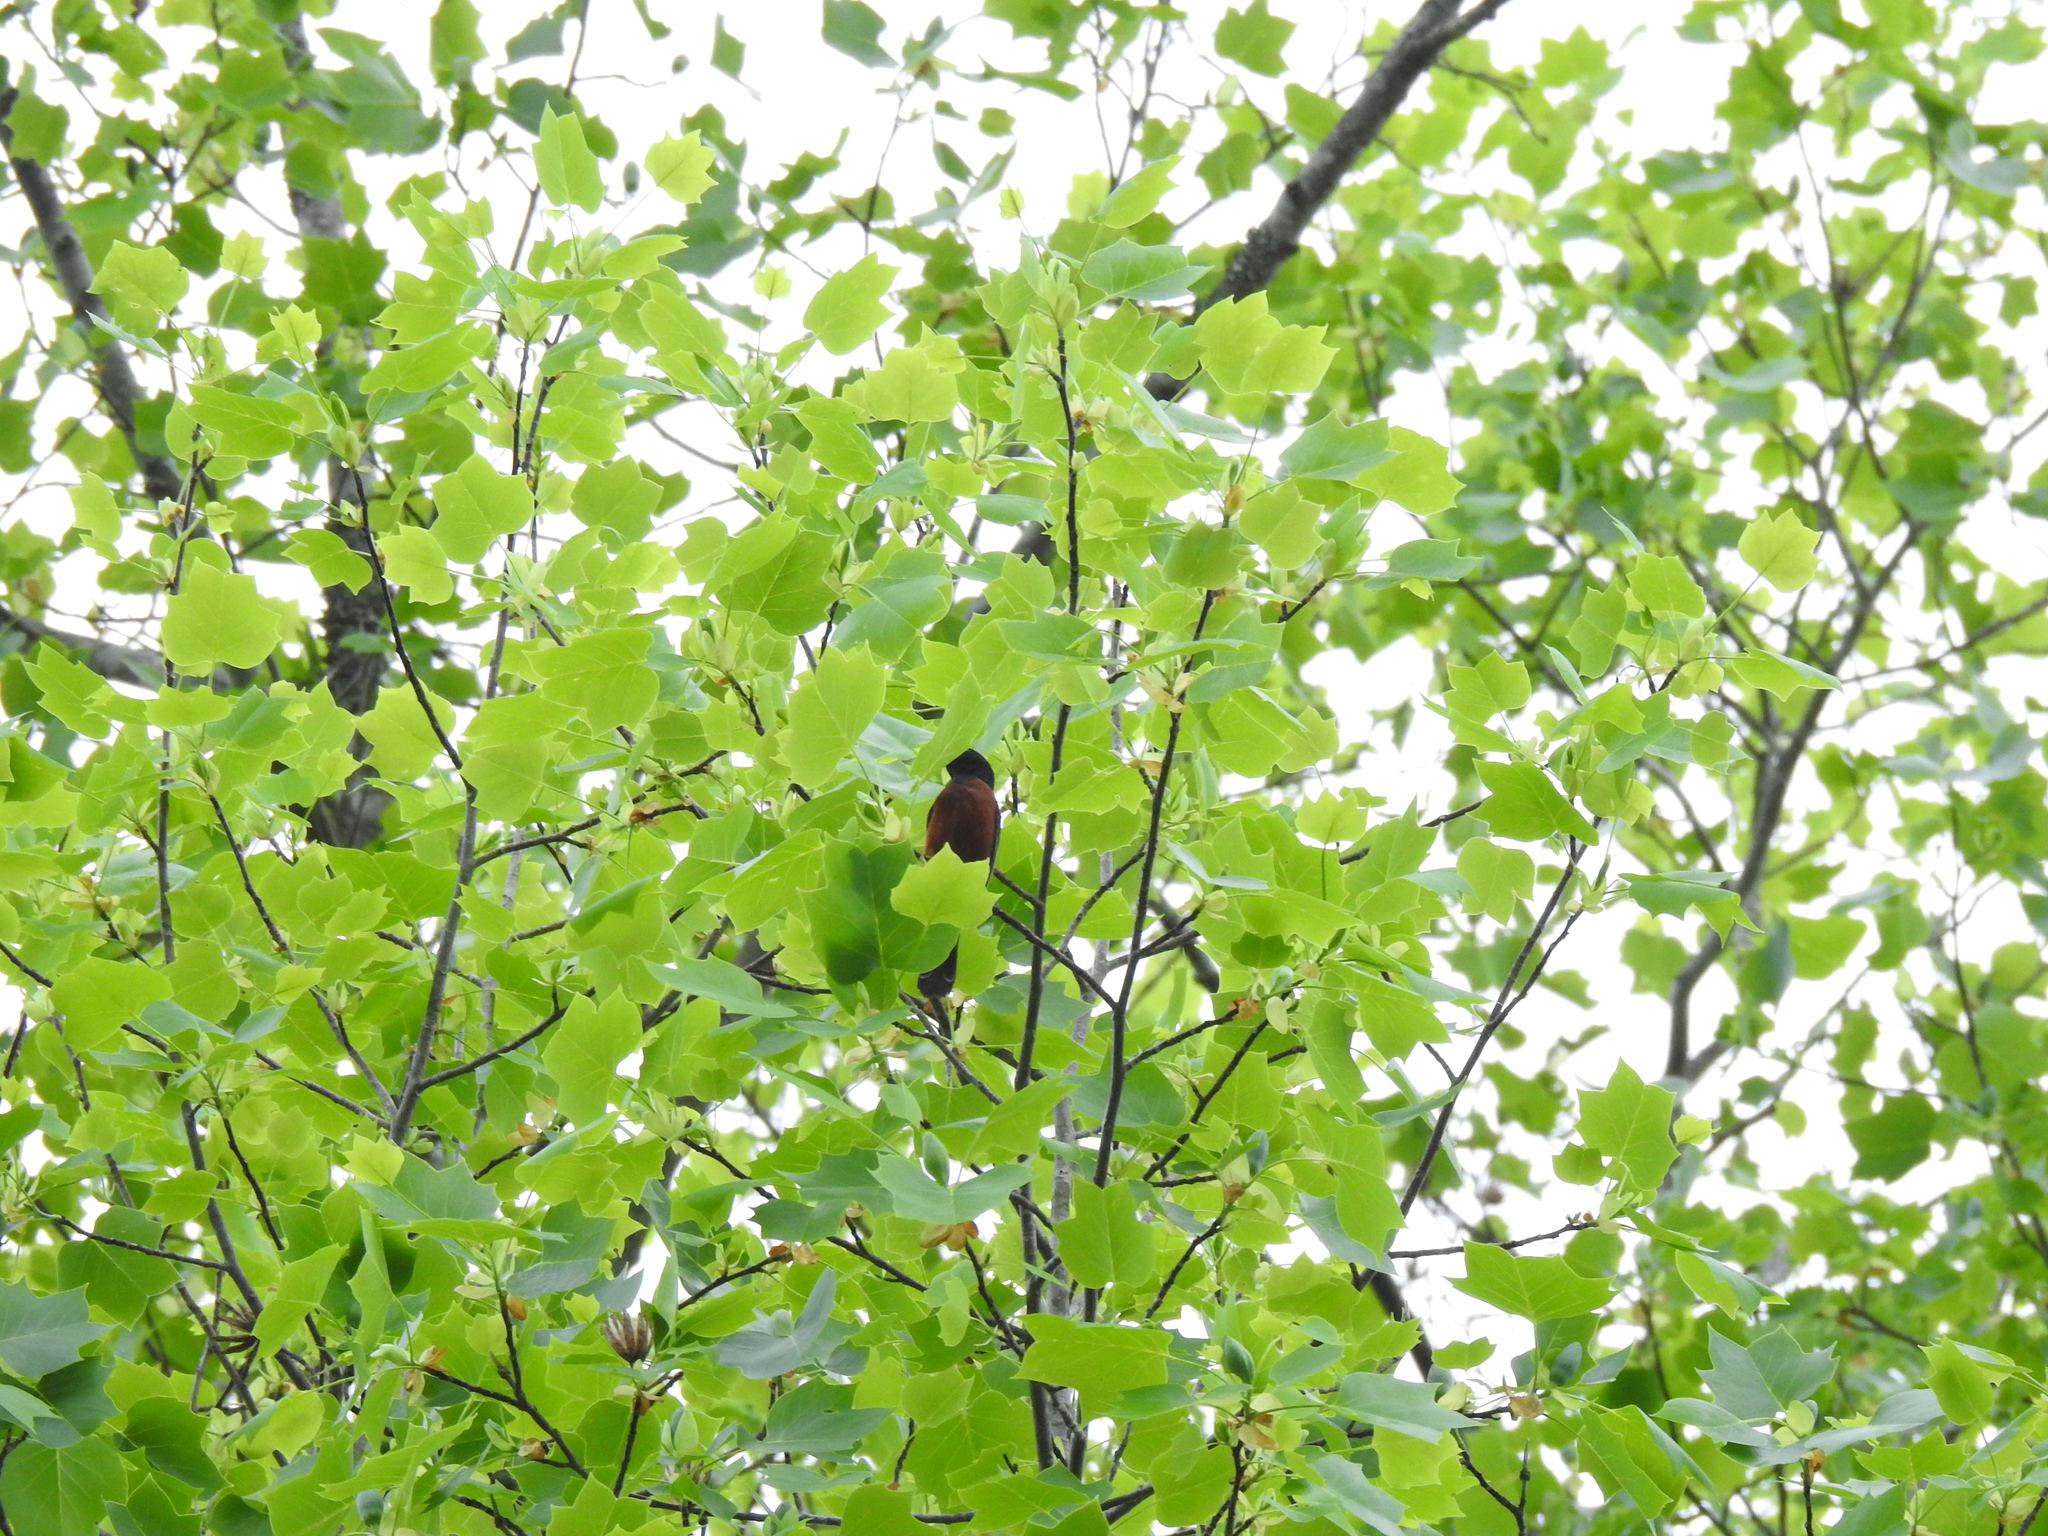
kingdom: Animalia
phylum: Chordata
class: Aves
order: Passeriformes
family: Icteridae
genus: Icterus
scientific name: Icterus spurius
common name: Orchard oriole
